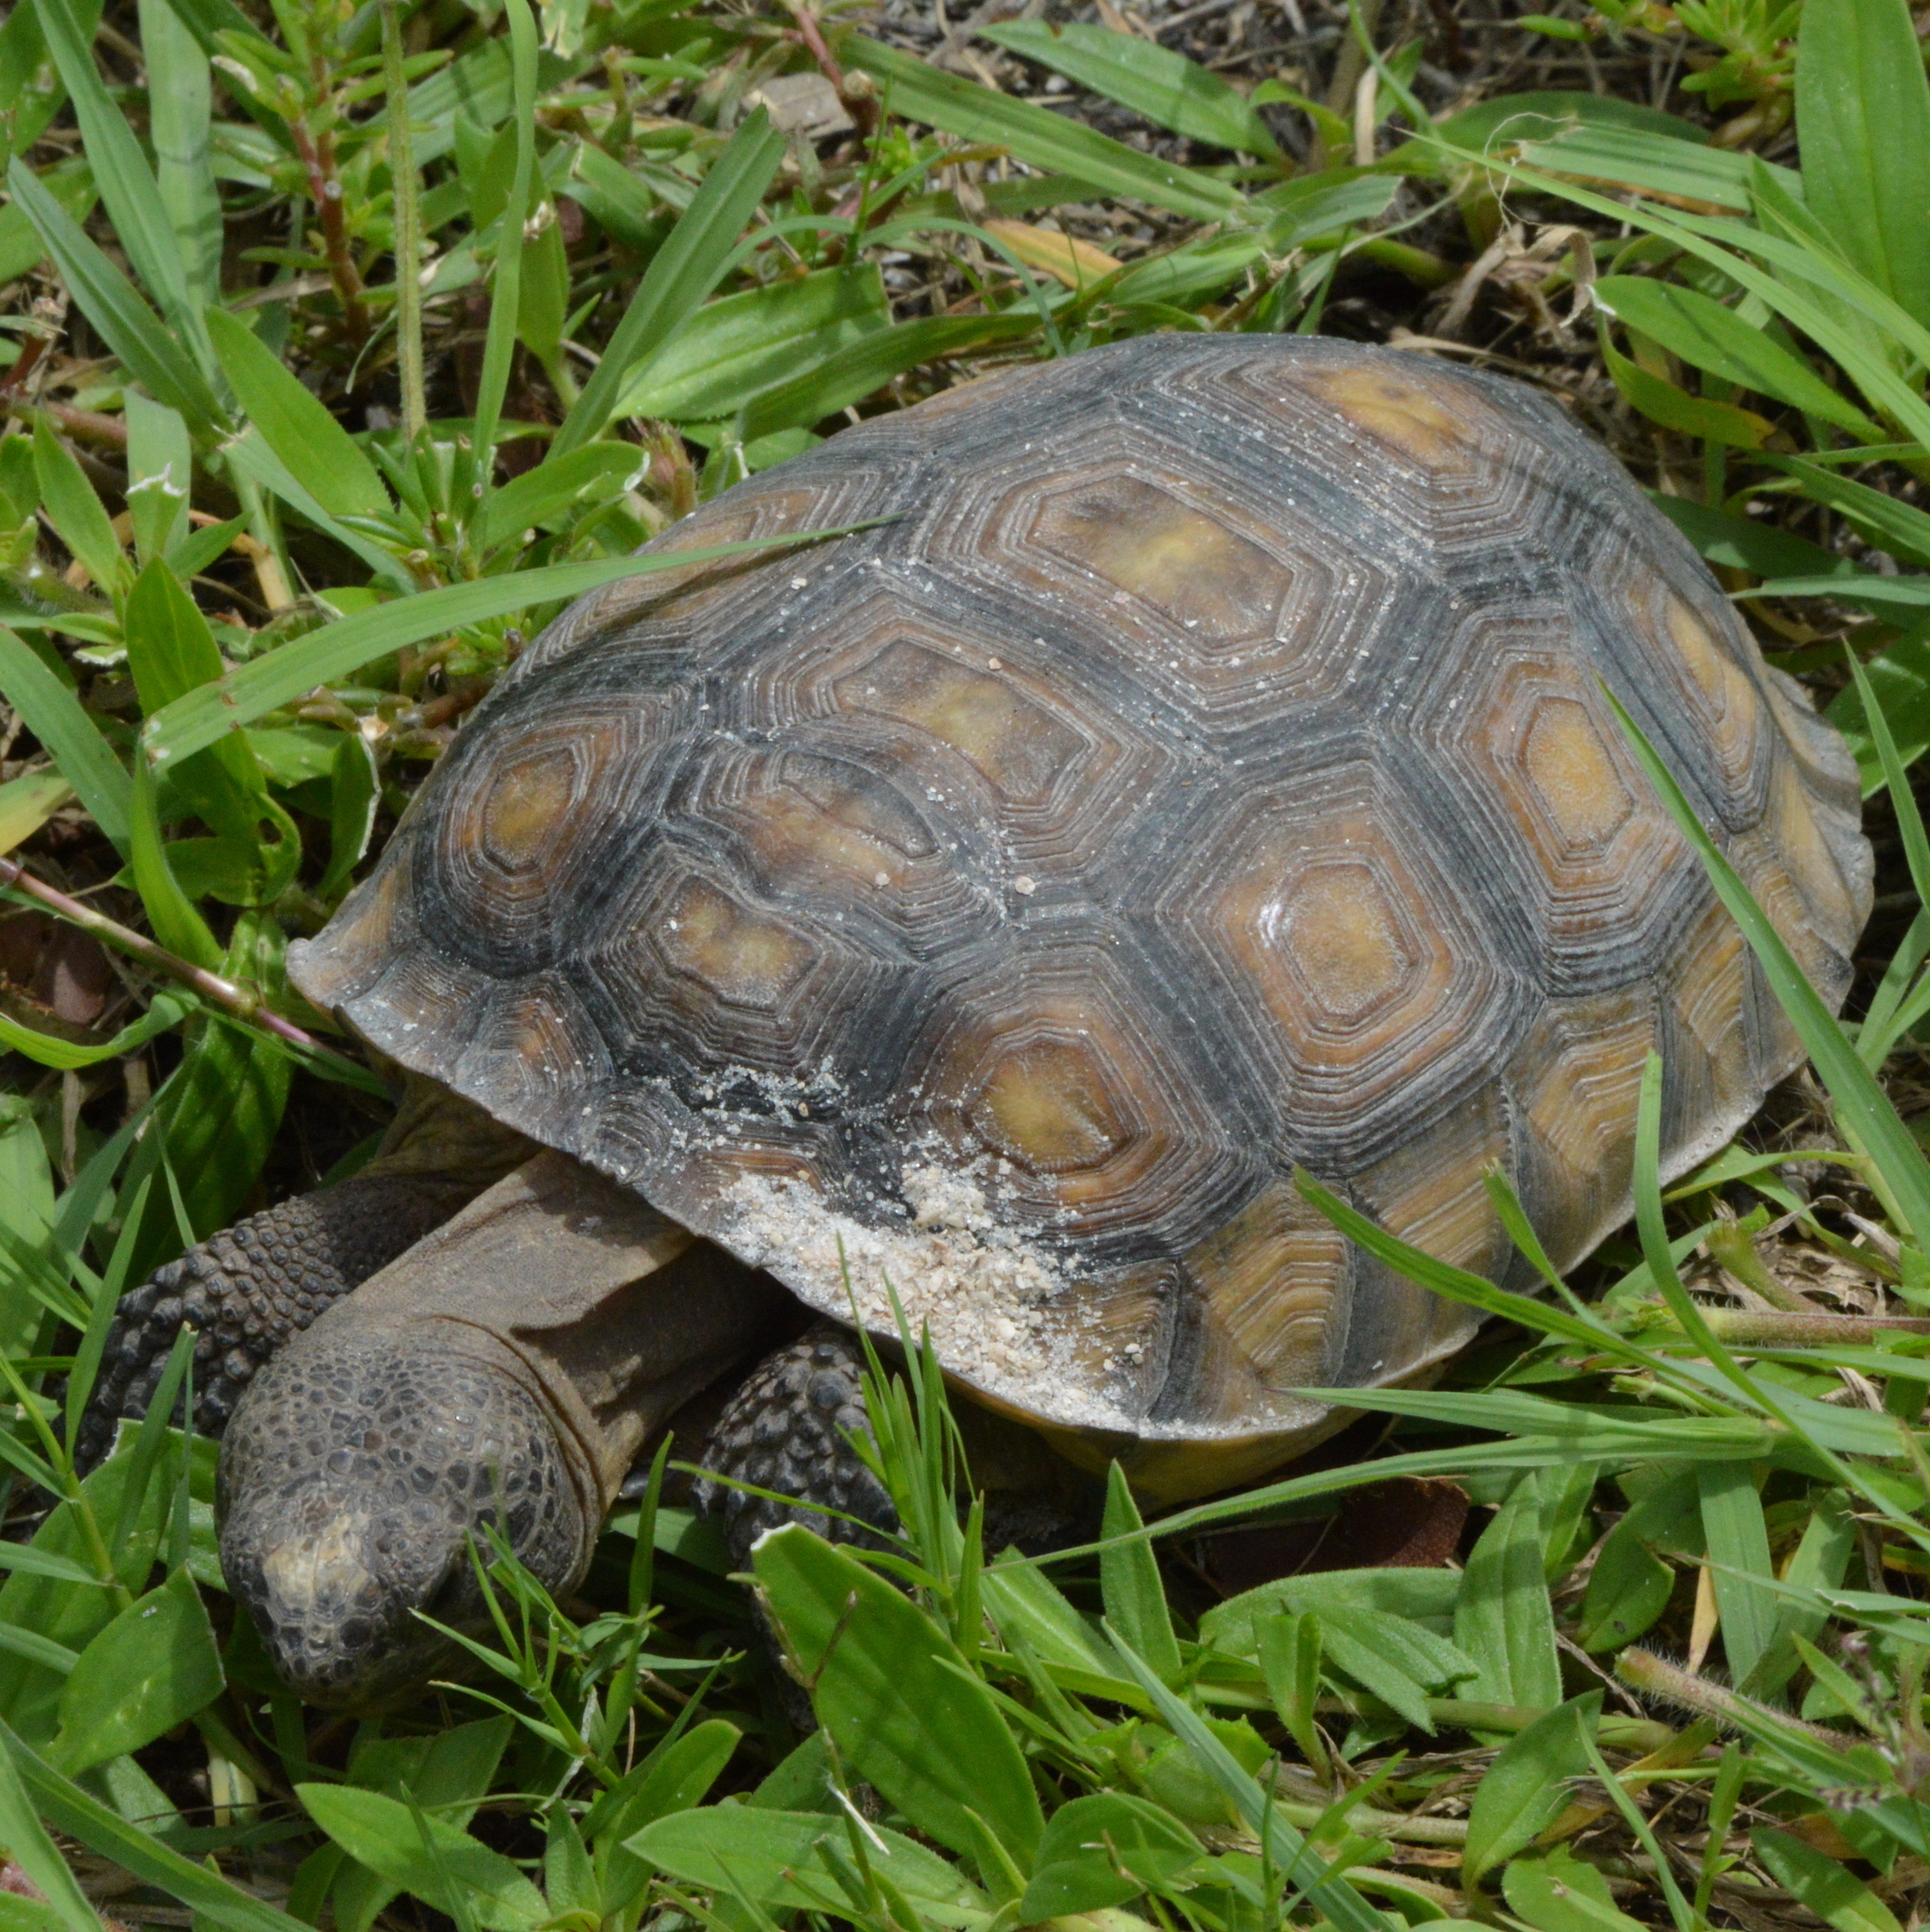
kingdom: Animalia
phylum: Chordata
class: Testudines
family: Testudinidae
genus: Gopherus
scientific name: Gopherus polyphemus
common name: Florida gopher tortoise
